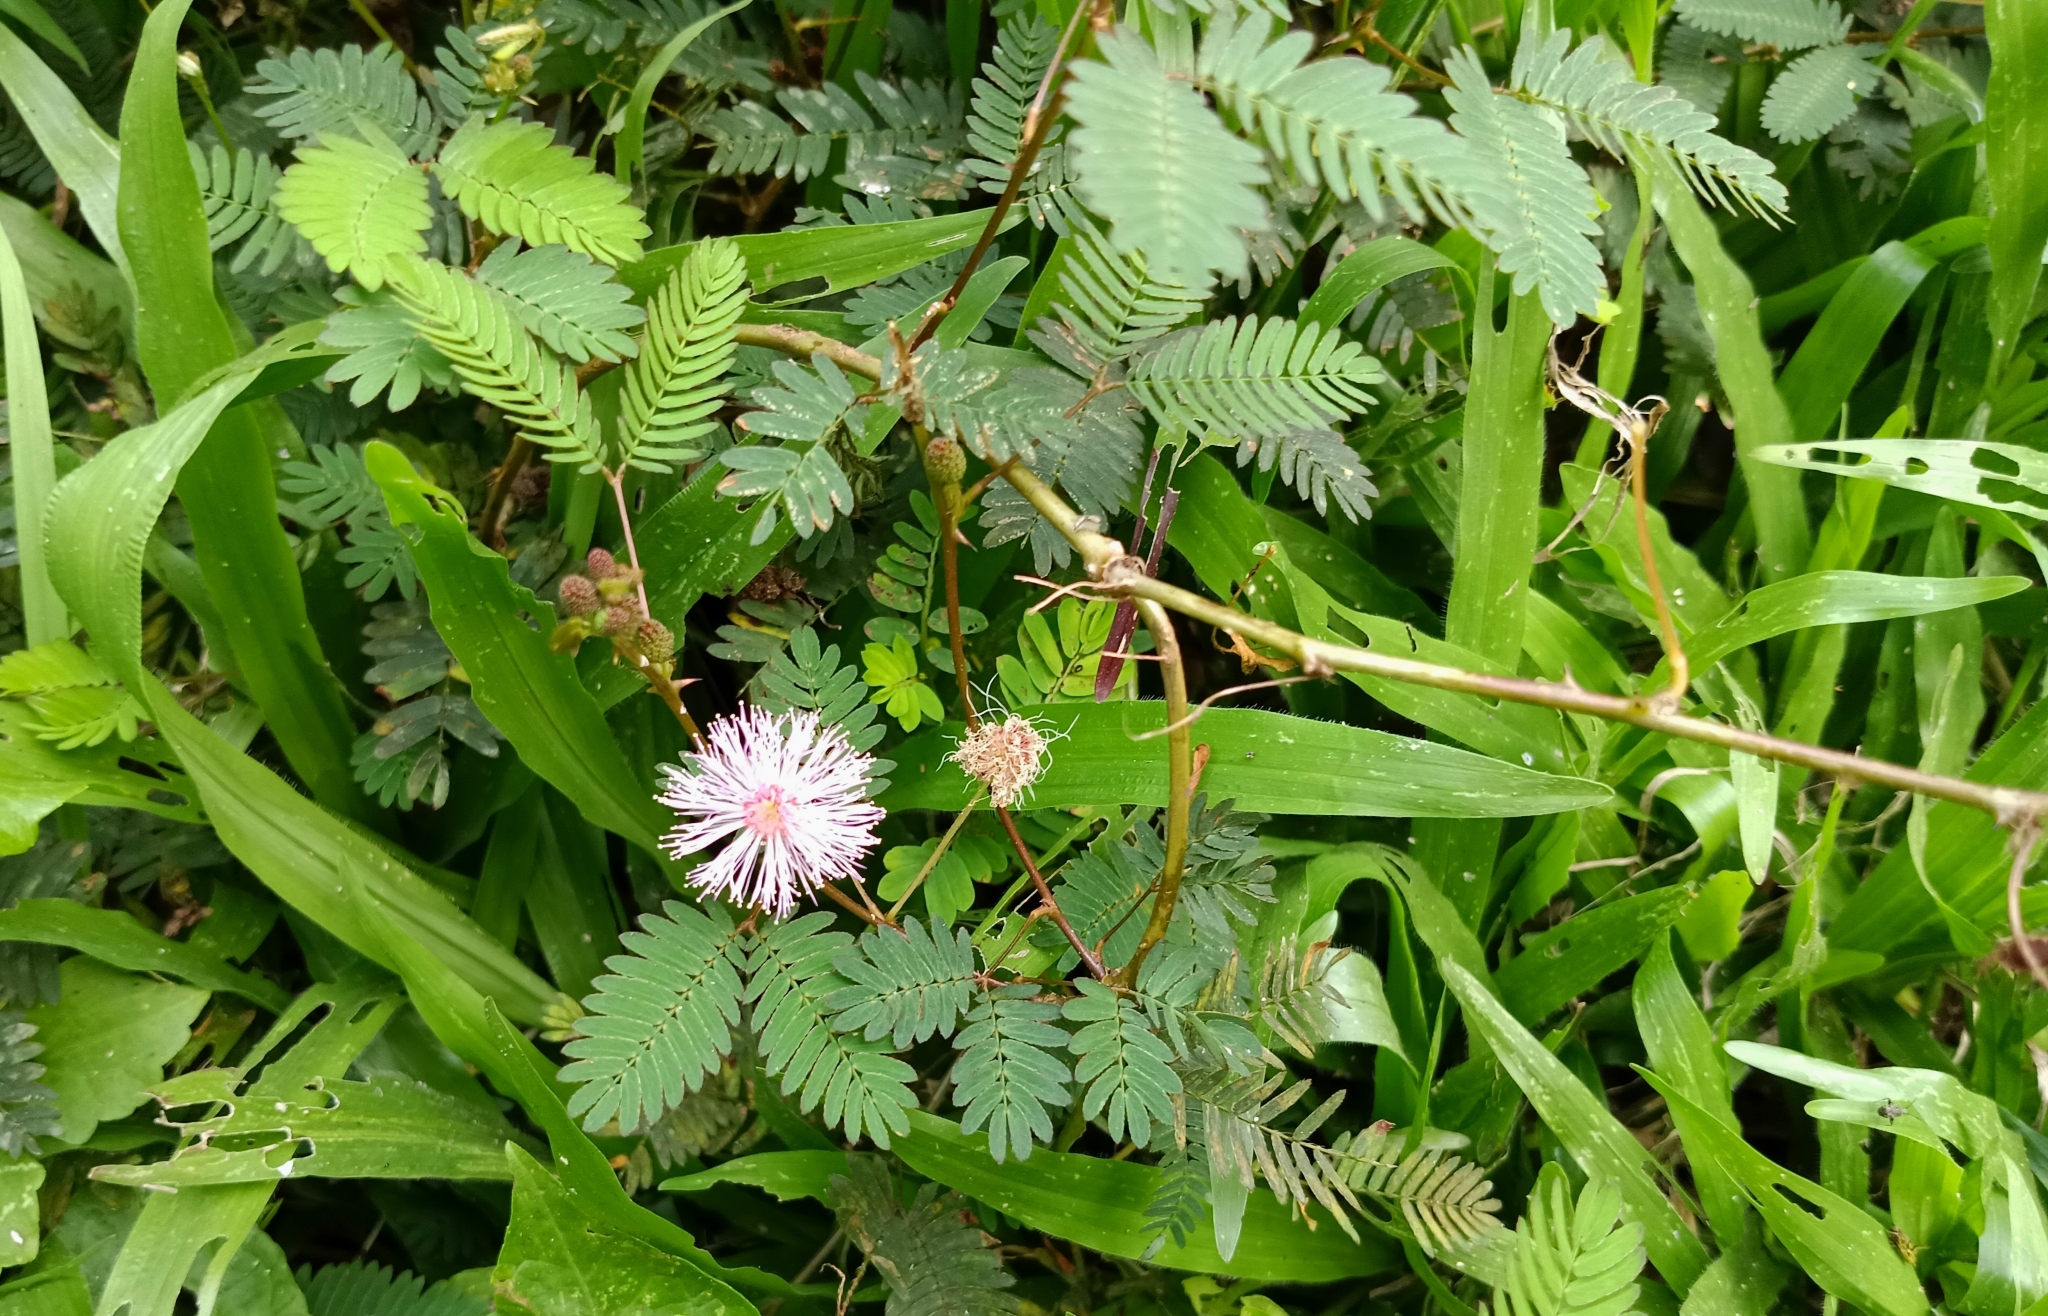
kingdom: Plantae
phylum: Tracheophyta
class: Magnoliopsida
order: Fabales
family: Fabaceae
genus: Mimosa
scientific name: Mimosa pudica
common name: Sensitive plant
